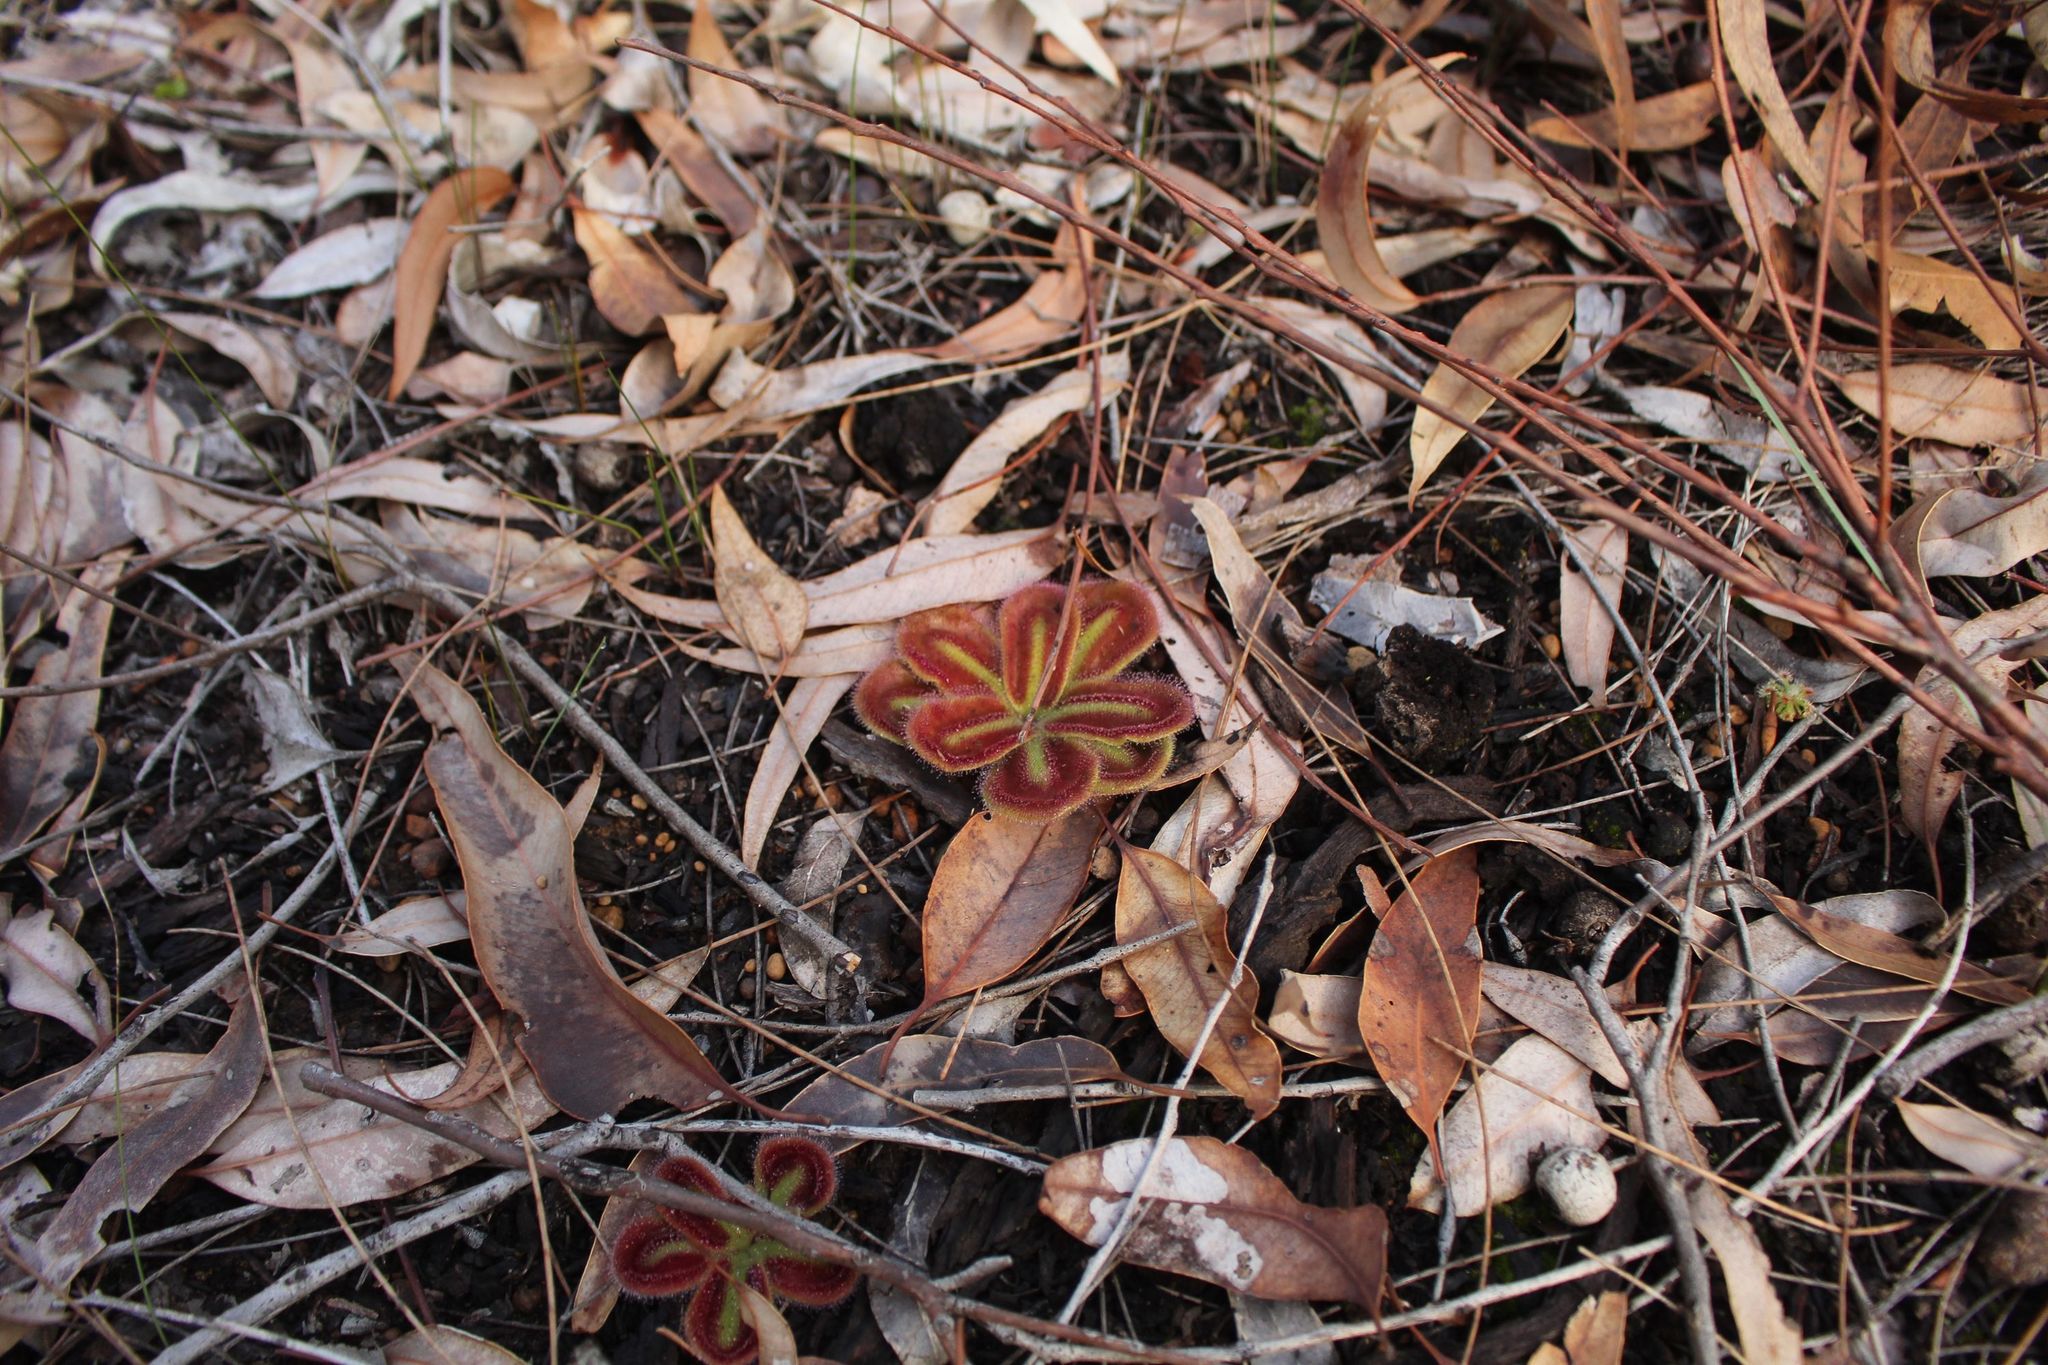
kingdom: Plantae
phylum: Tracheophyta
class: Magnoliopsida
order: Caryophyllales
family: Droseraceae
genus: Drosera
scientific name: Drosera erythrorhiza
